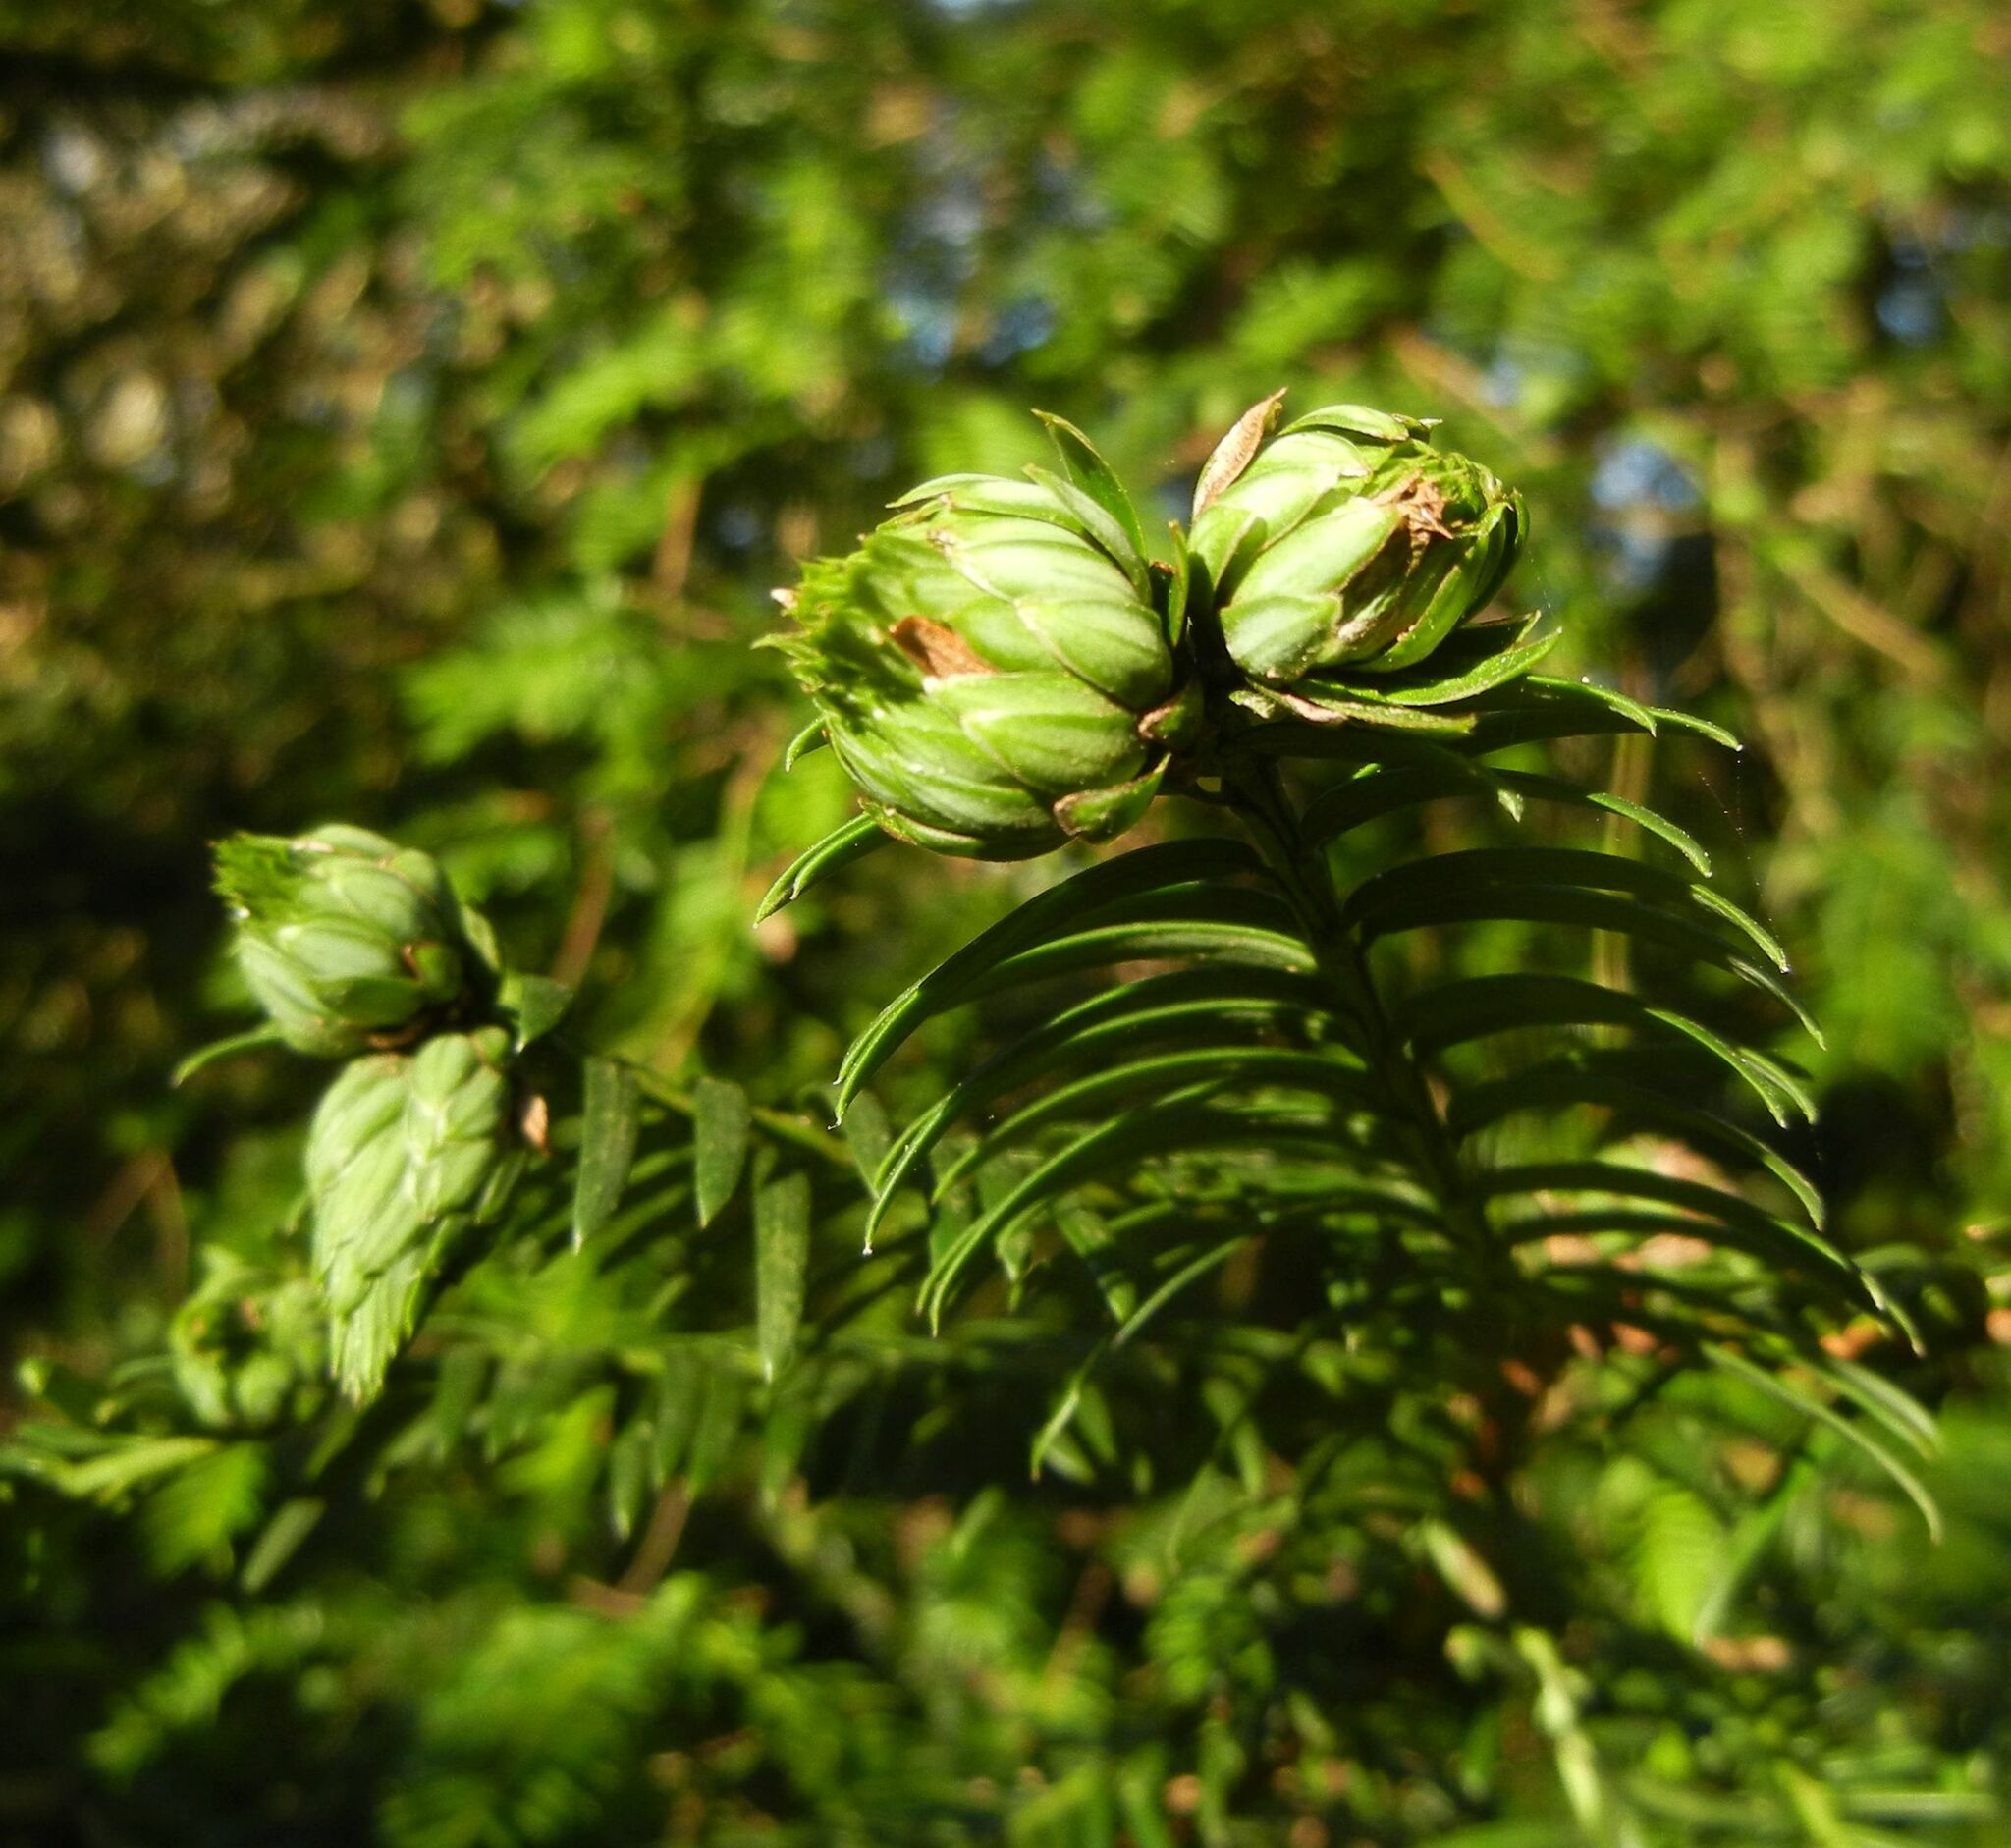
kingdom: Animalia
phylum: Arthropoda
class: Insecta
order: Diptera
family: Cecidomyiidae
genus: Taxomyia
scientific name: Taxomyia taxi
